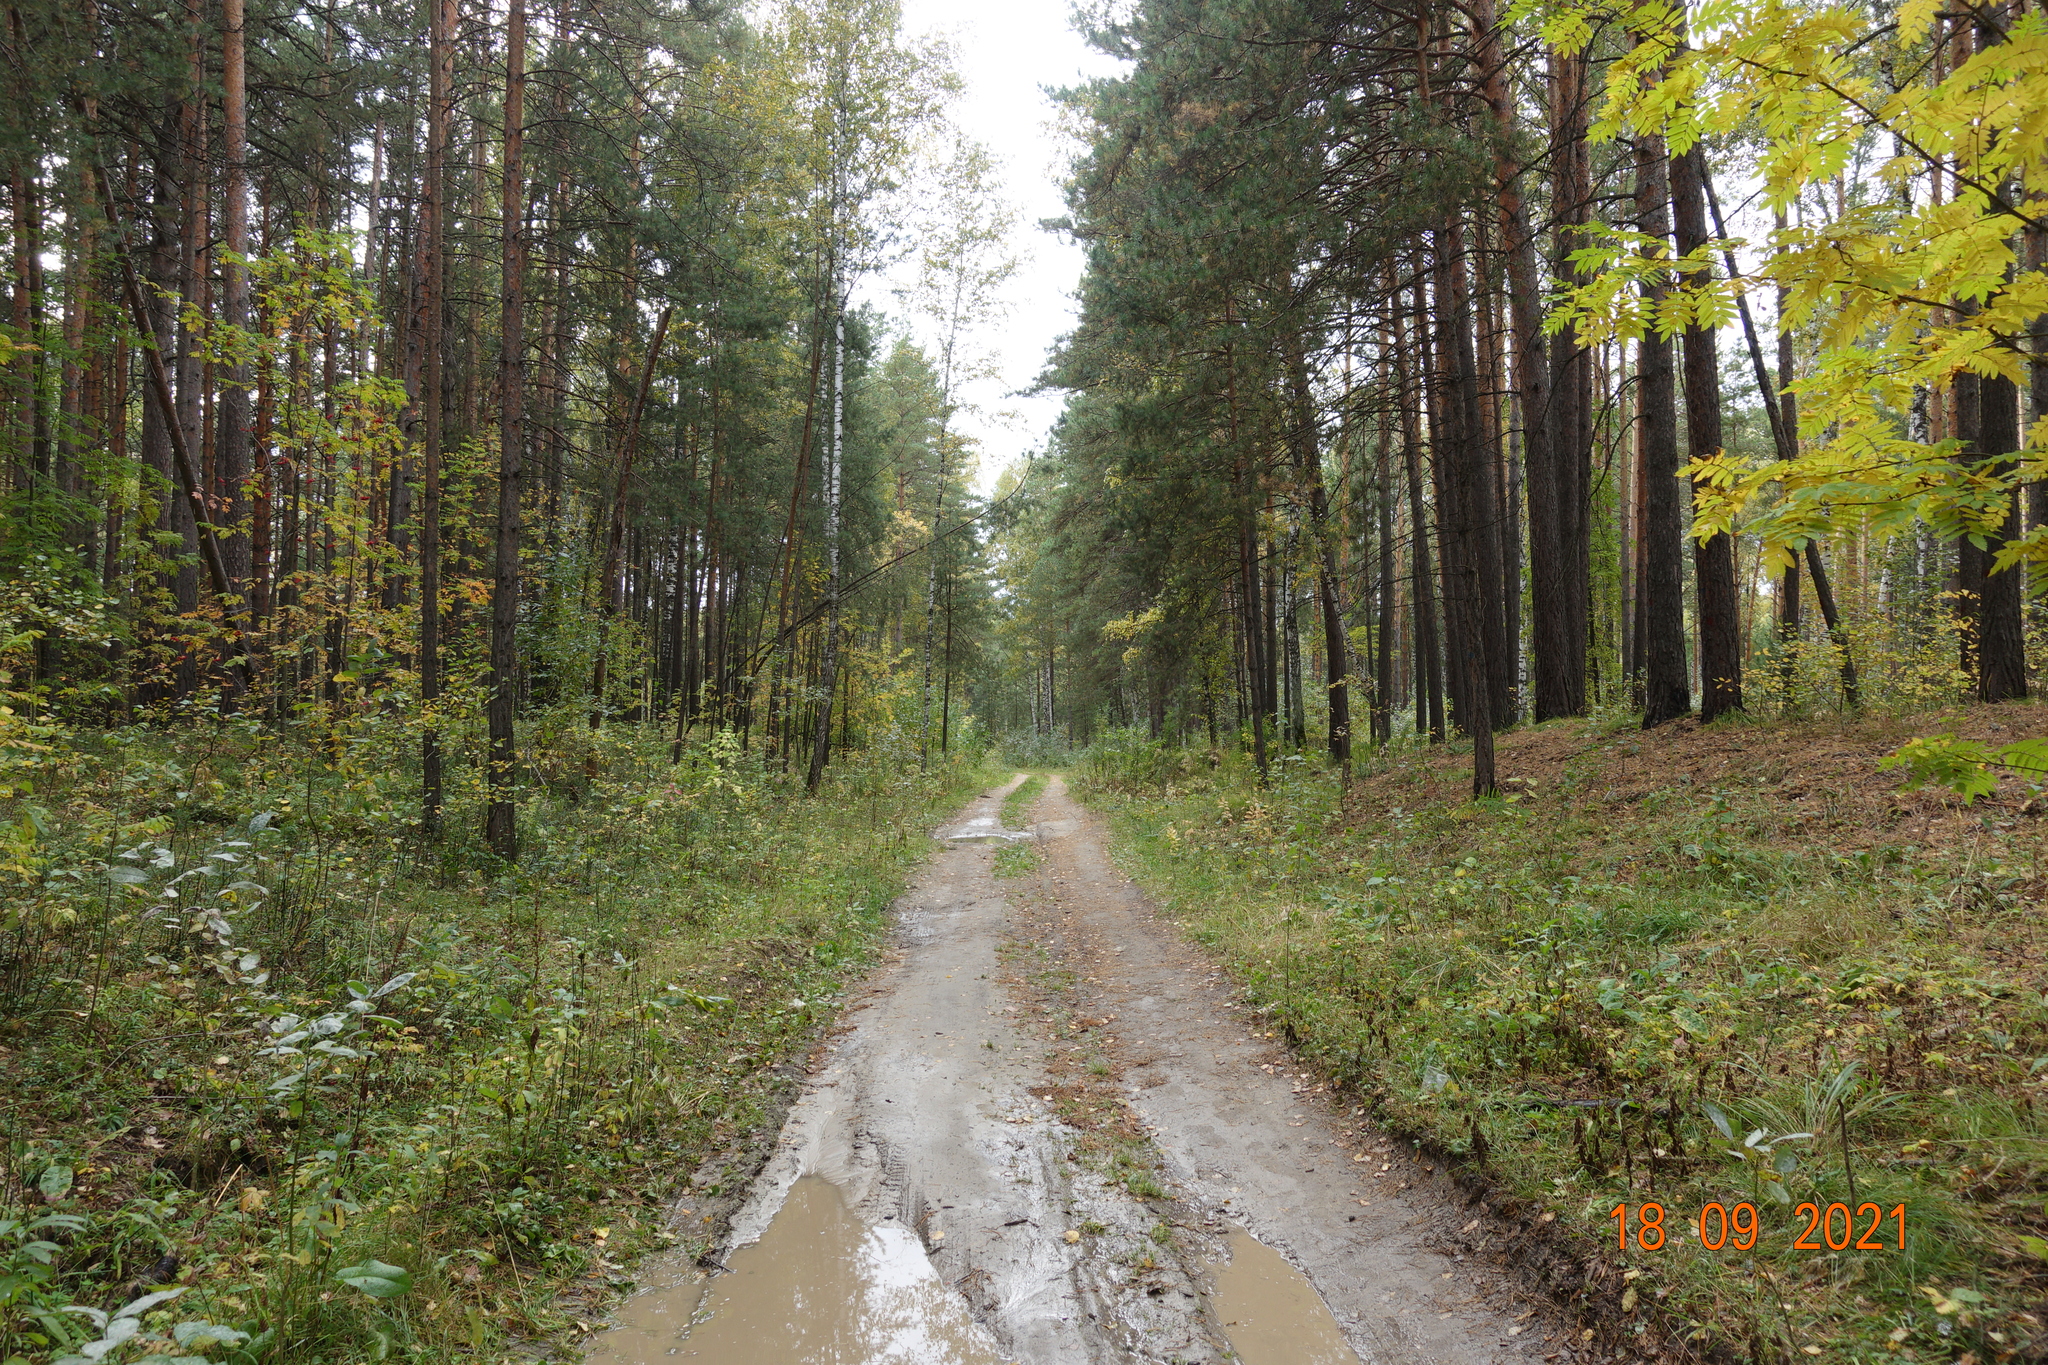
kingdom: Plantae
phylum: Tracheophyta
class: Pinopsida
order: Pinales
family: Pinaceae
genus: Pinus
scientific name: Pinus sylvestris
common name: Scots pine
